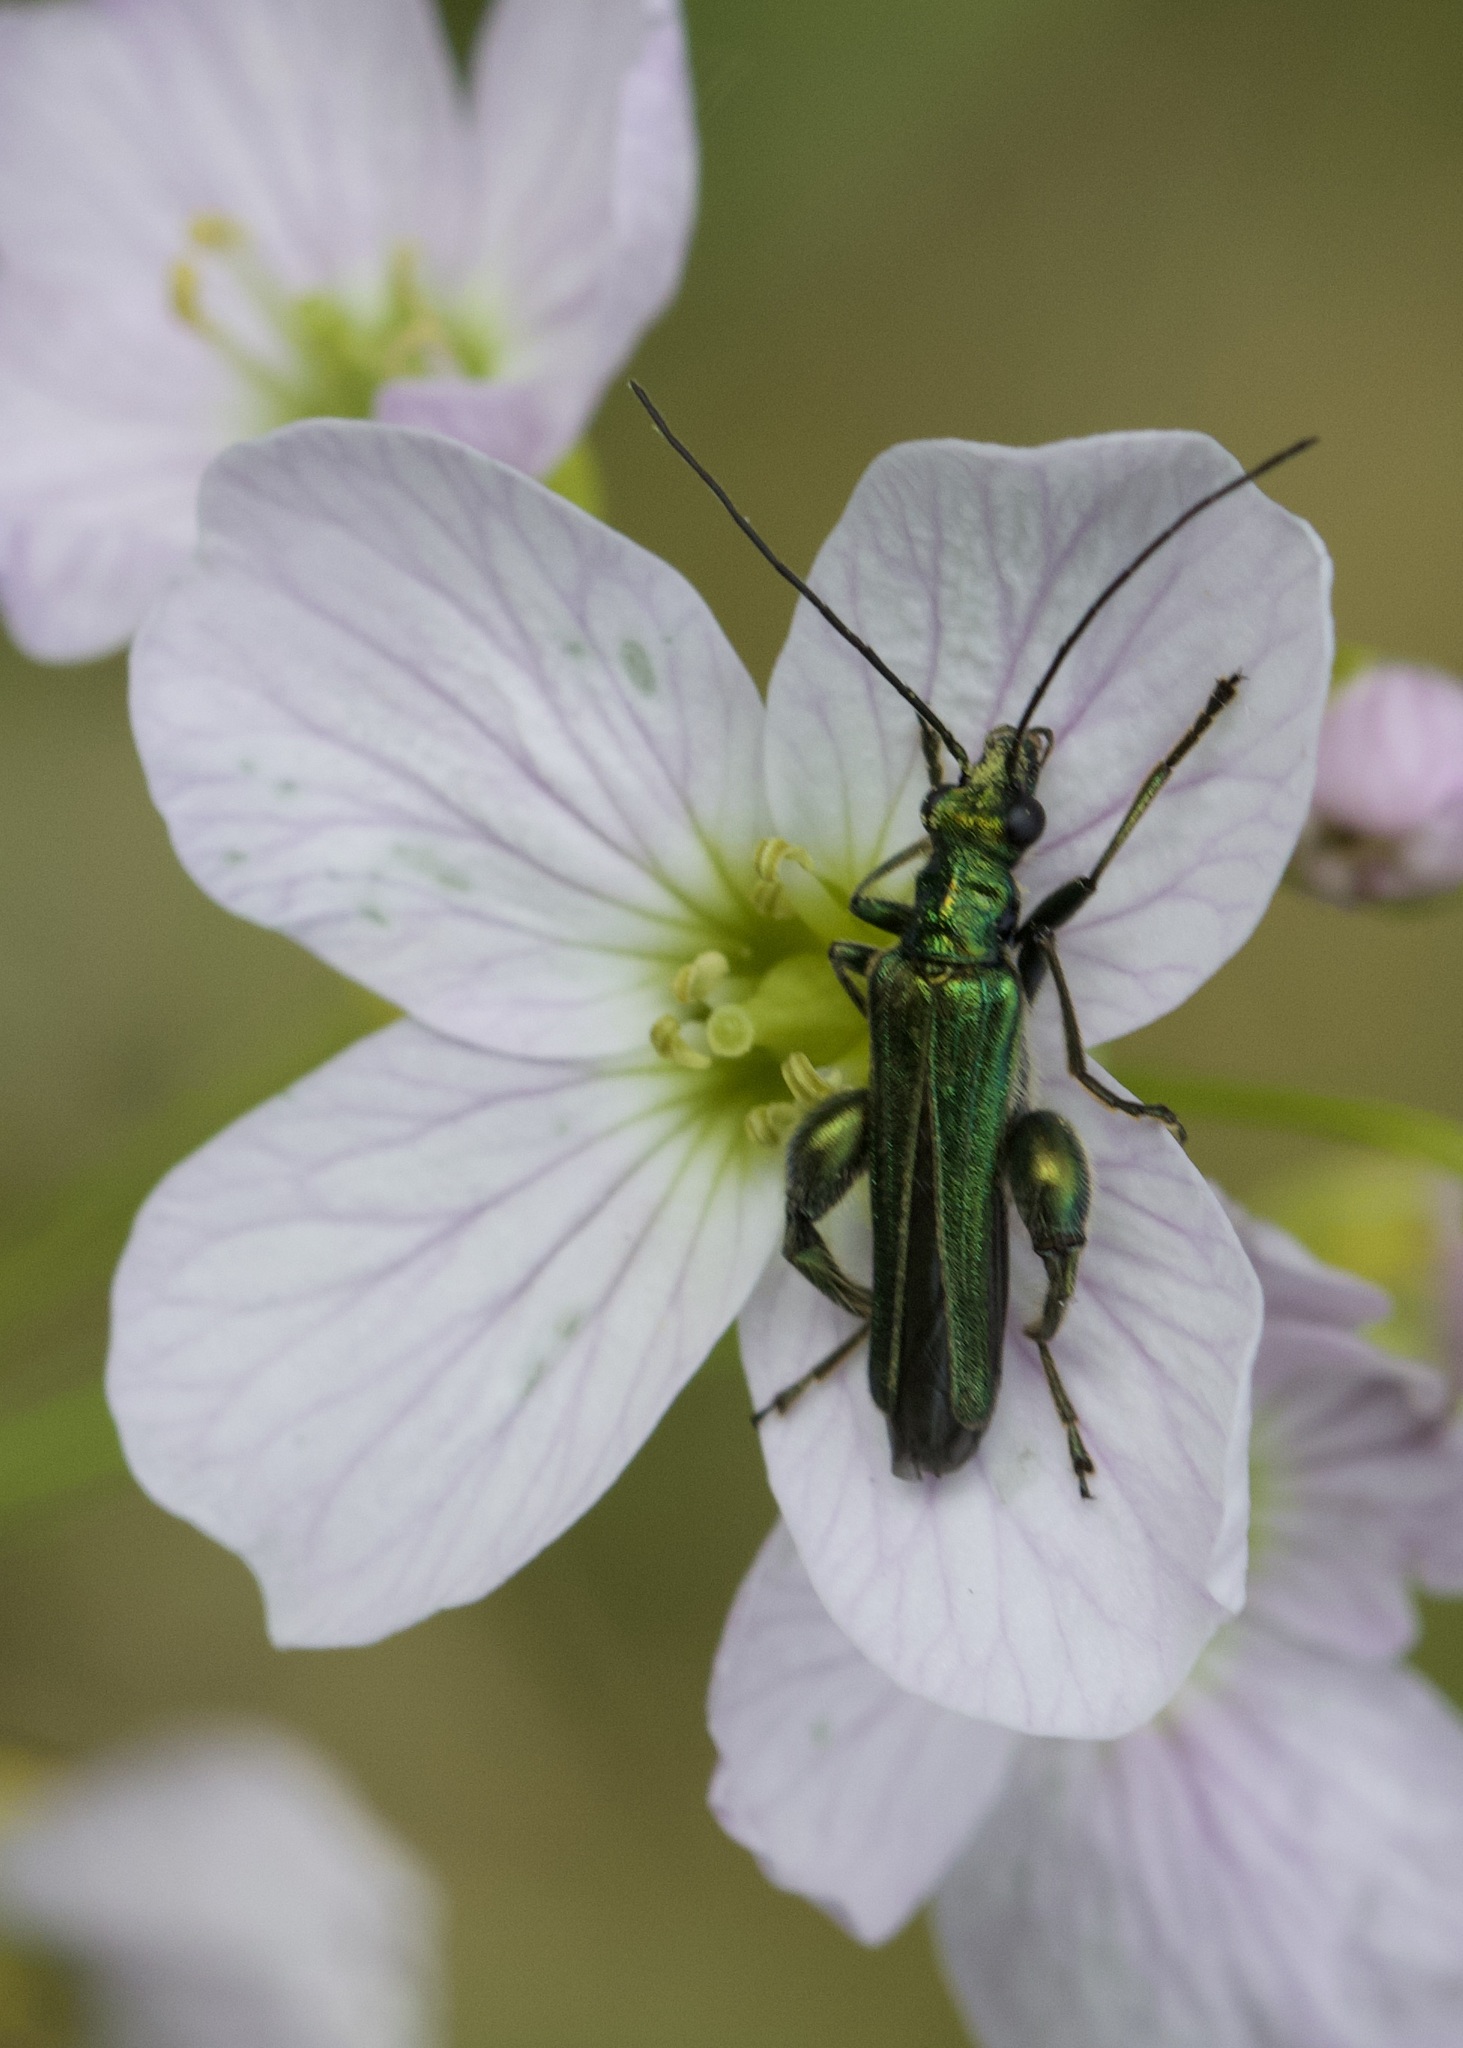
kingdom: Animalia
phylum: Arthropoda
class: Insecta
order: Coleoptera
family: Oedemeridae
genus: Oedemera
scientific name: Oedemera nobilis
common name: Swollen-thighed beetle
